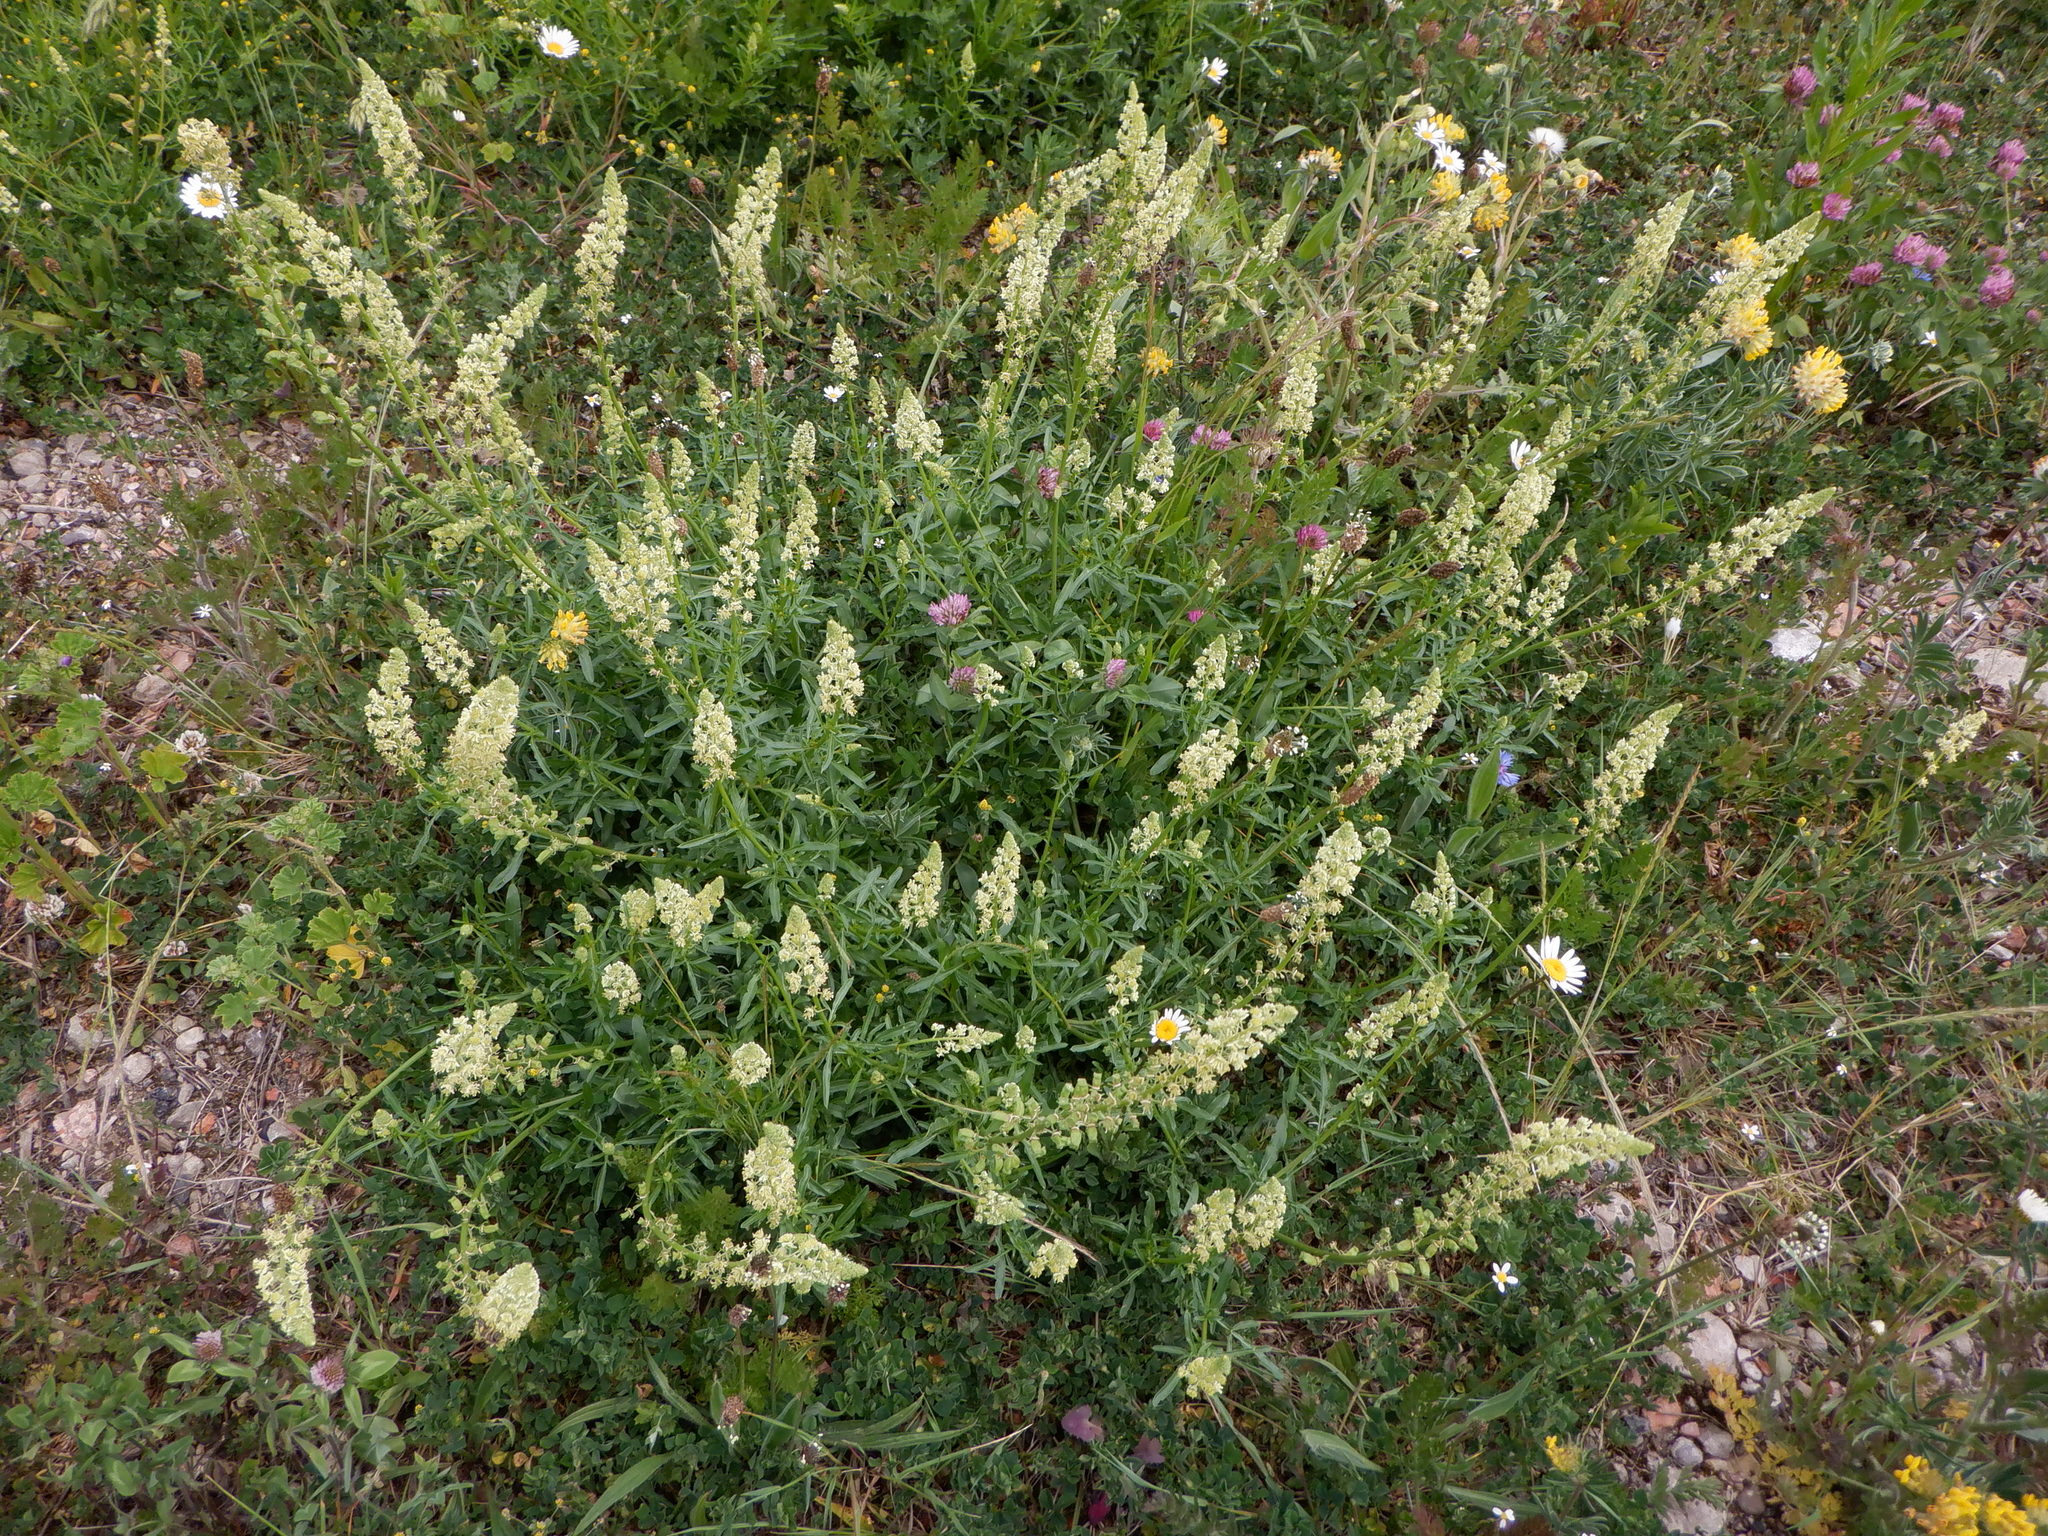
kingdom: Plantae
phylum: Tracheophyta
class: Magnoliopsida
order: Brassicales
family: Resedaceae
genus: Reseda
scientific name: Reseda lutea
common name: Wild mignonette
